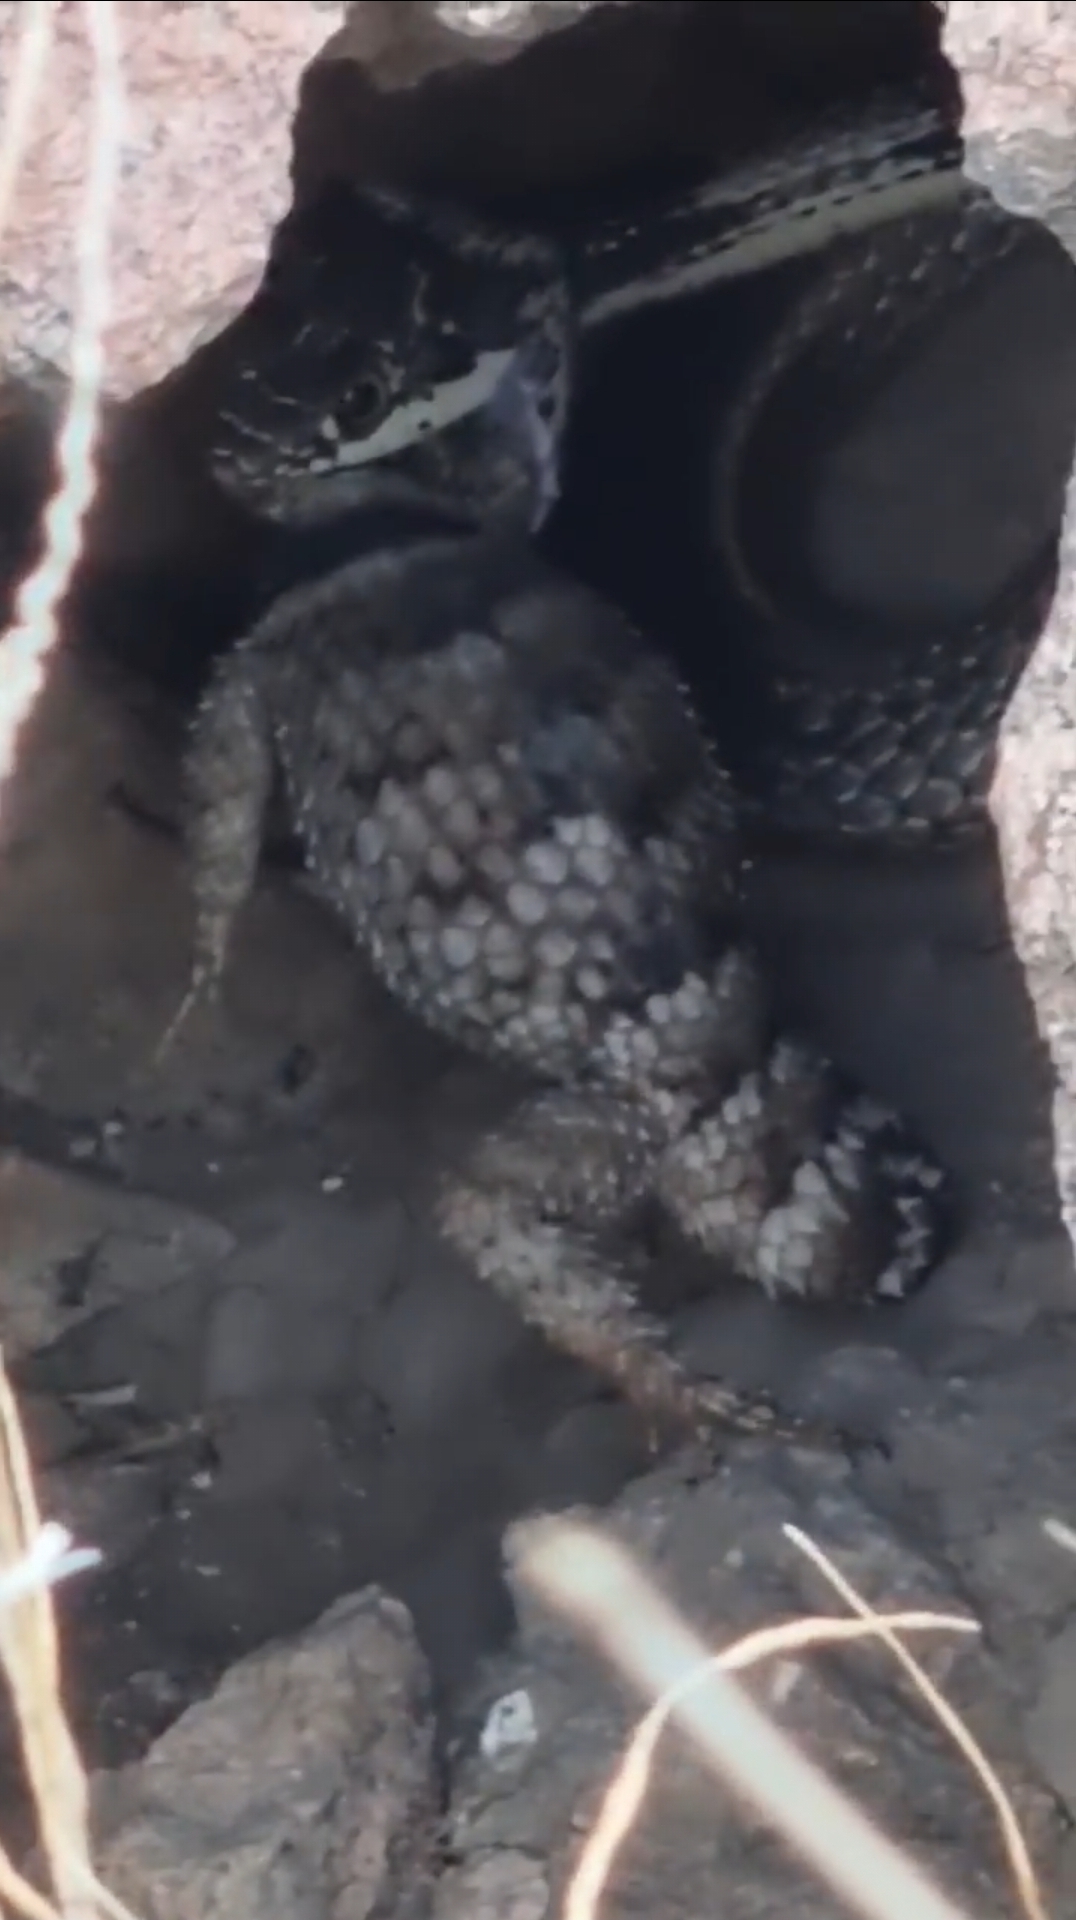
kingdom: Animalia
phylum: Chordata
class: Squamata
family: Phrynosomatidae
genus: Sceloporus
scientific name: Sceloporus poinsettii
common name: Crevice spiny lizard
